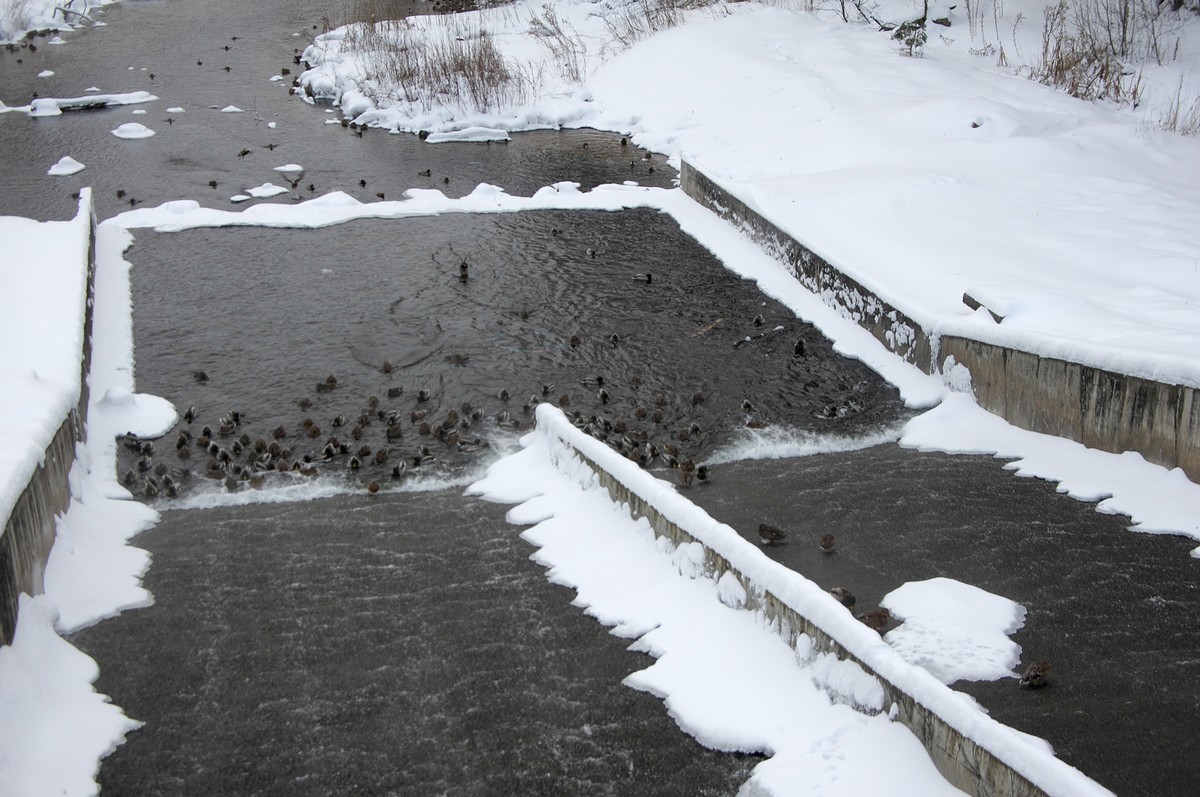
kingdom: Animalia
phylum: Chordata
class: Aves
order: Anseriformes
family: Anatidae
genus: Anas
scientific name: Anas platyrhynchos
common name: Mallard
